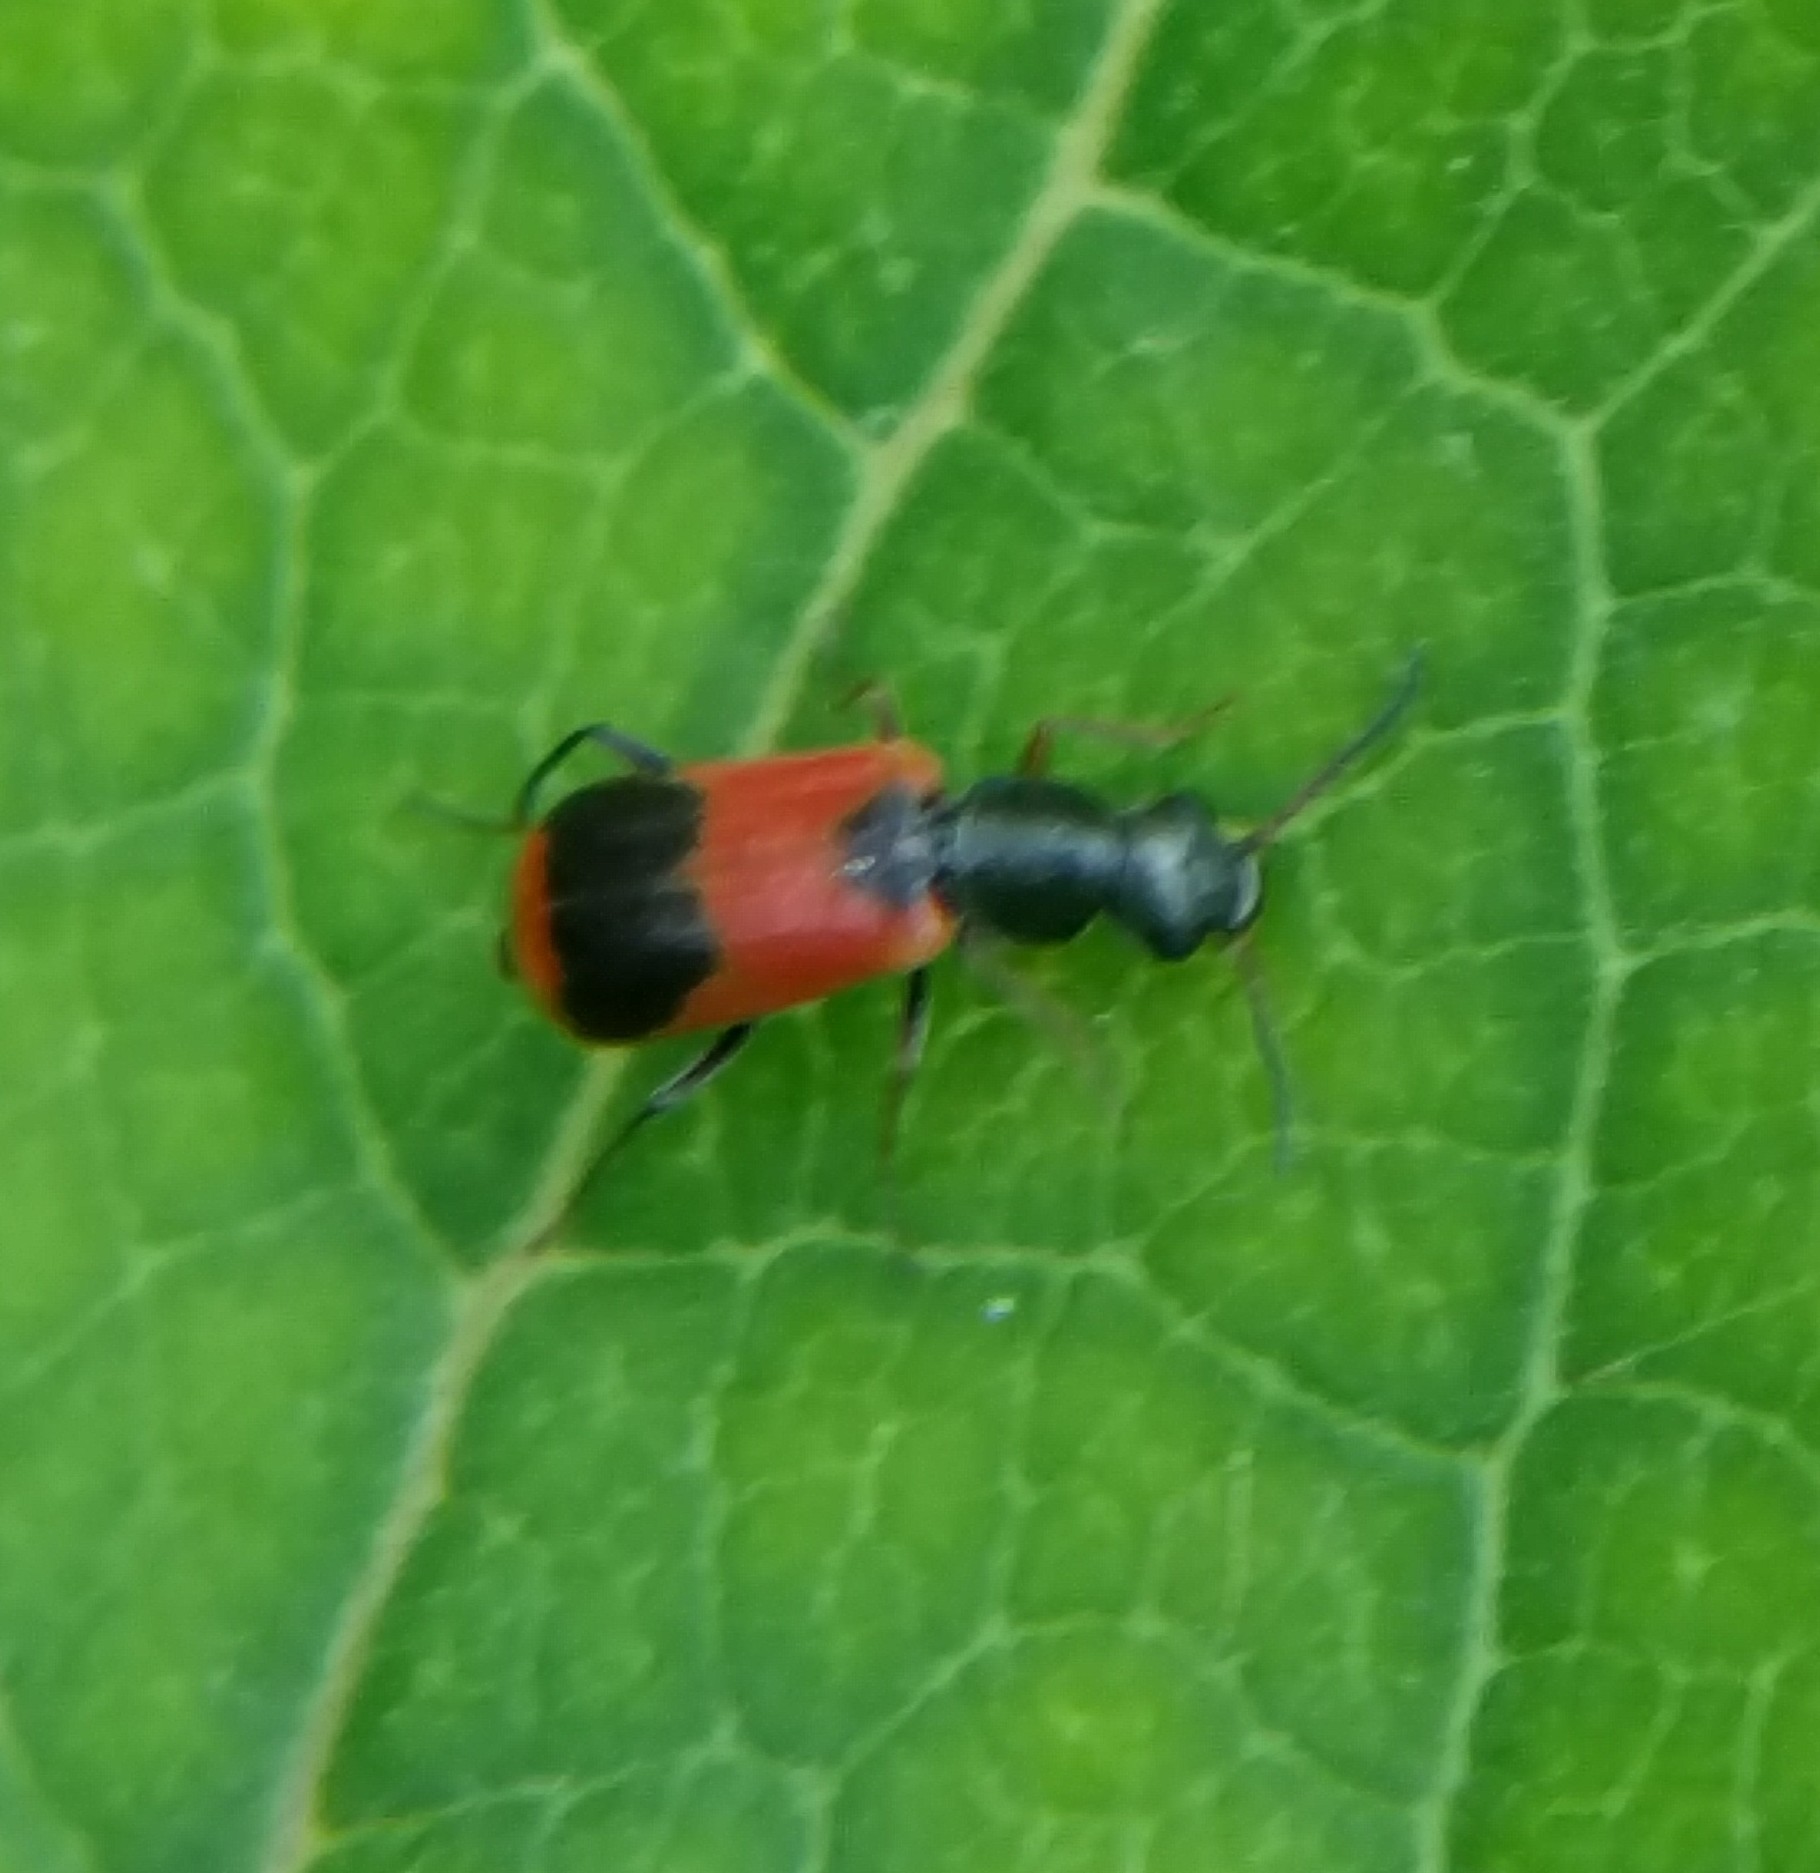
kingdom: Animalia
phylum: Arthropoda
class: Insecta
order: Coleoptera
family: Melyridae
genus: Anthocomus
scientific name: Anthocomus equestris
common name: Black-banded soft-winged flower beetle
